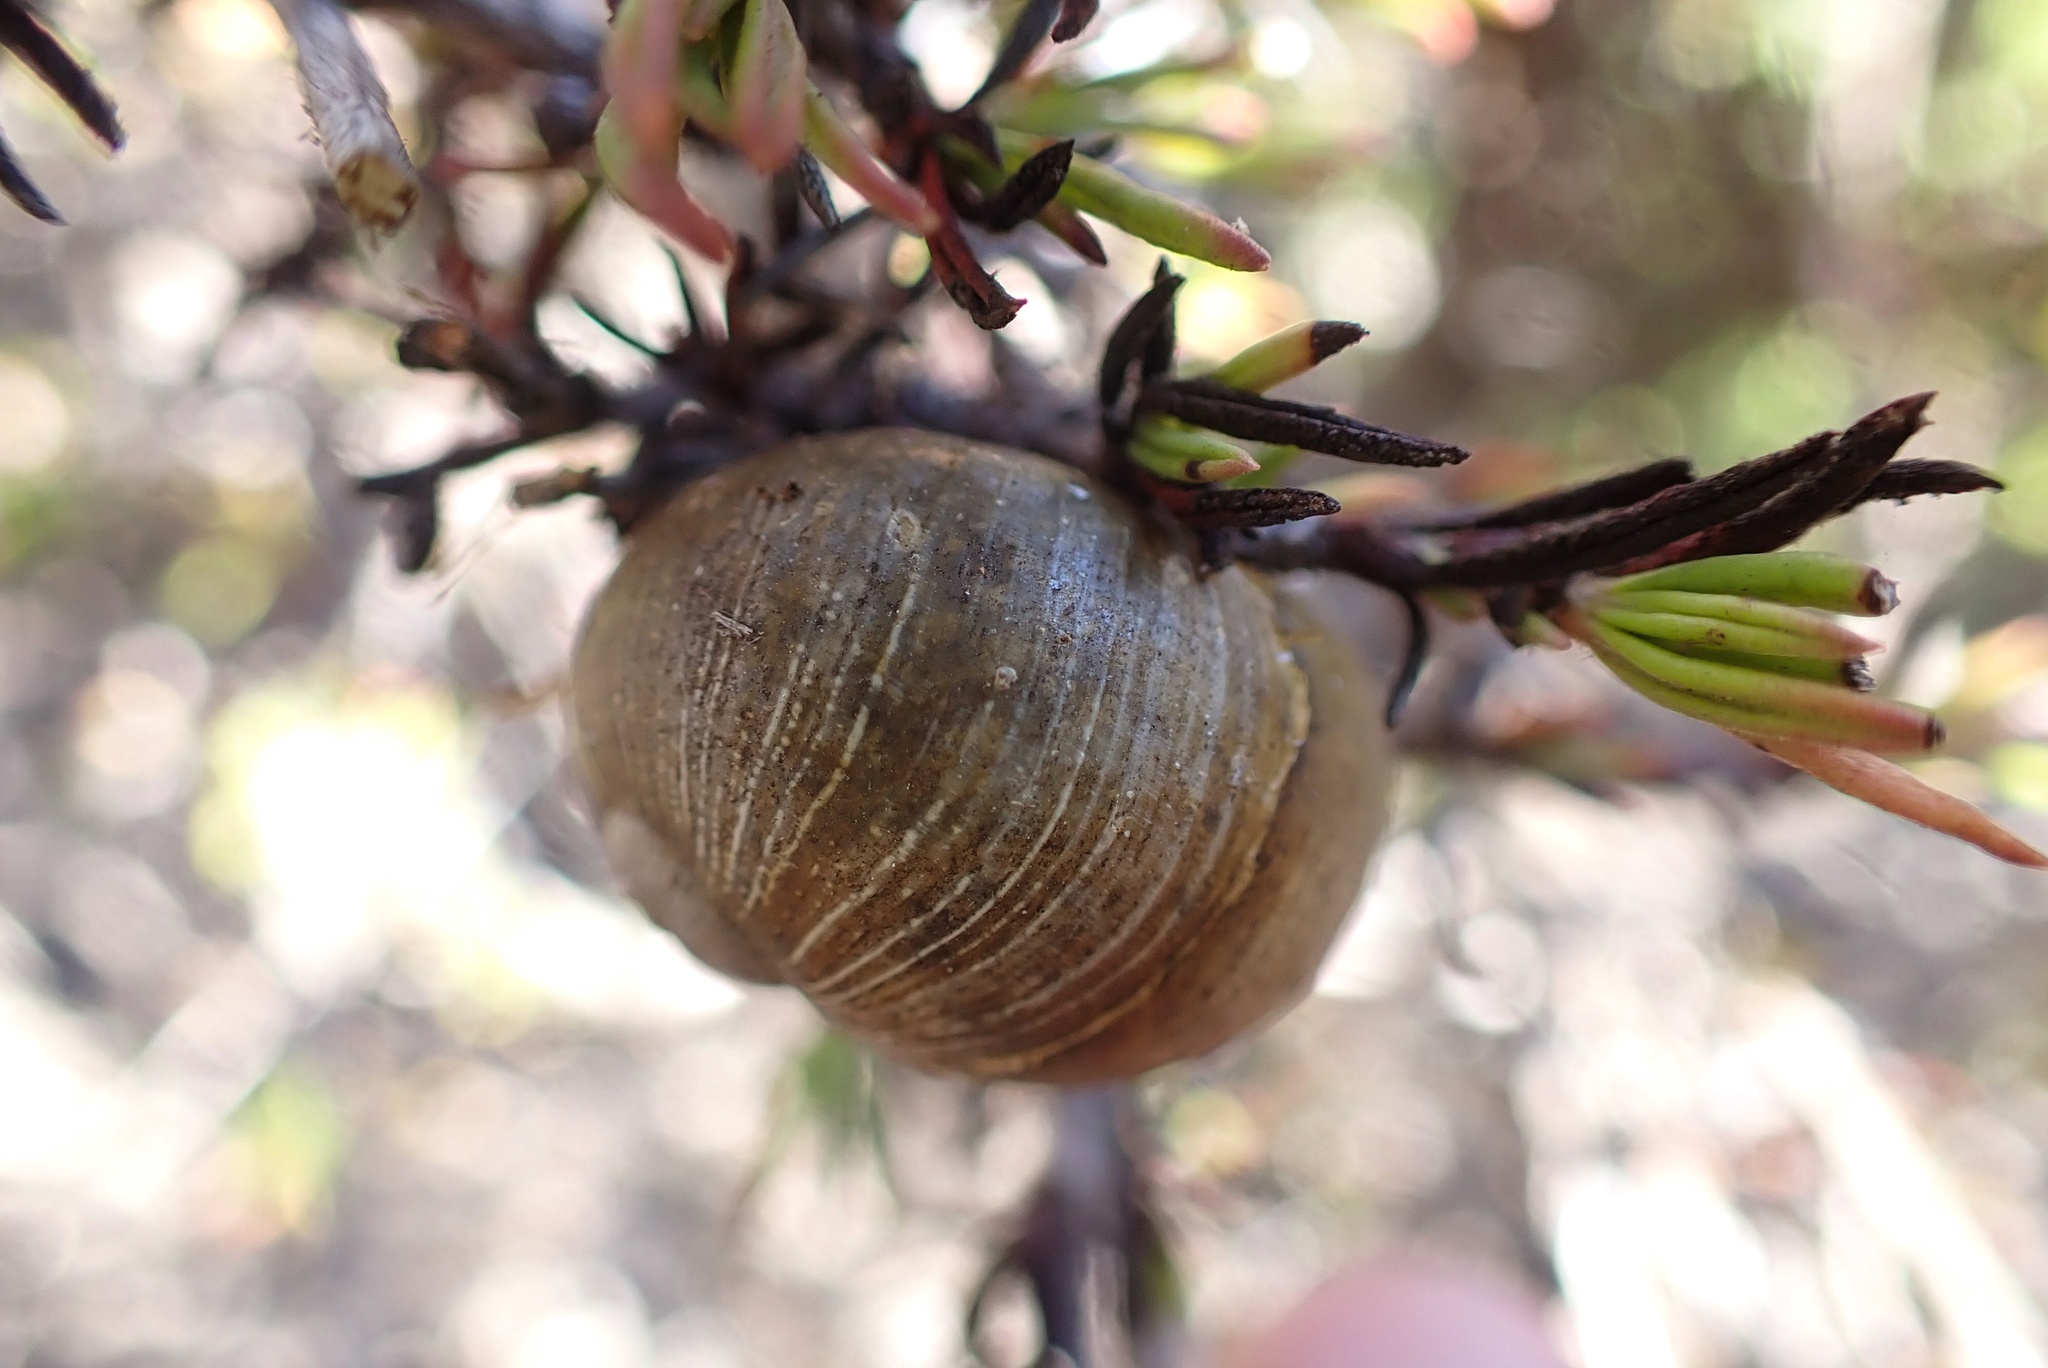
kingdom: Animalia
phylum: Mollusca
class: Gastropoda
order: Stylommatophora
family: Helicidae
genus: Cantareus
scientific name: Cantareus apertus
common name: Green gardensnail
